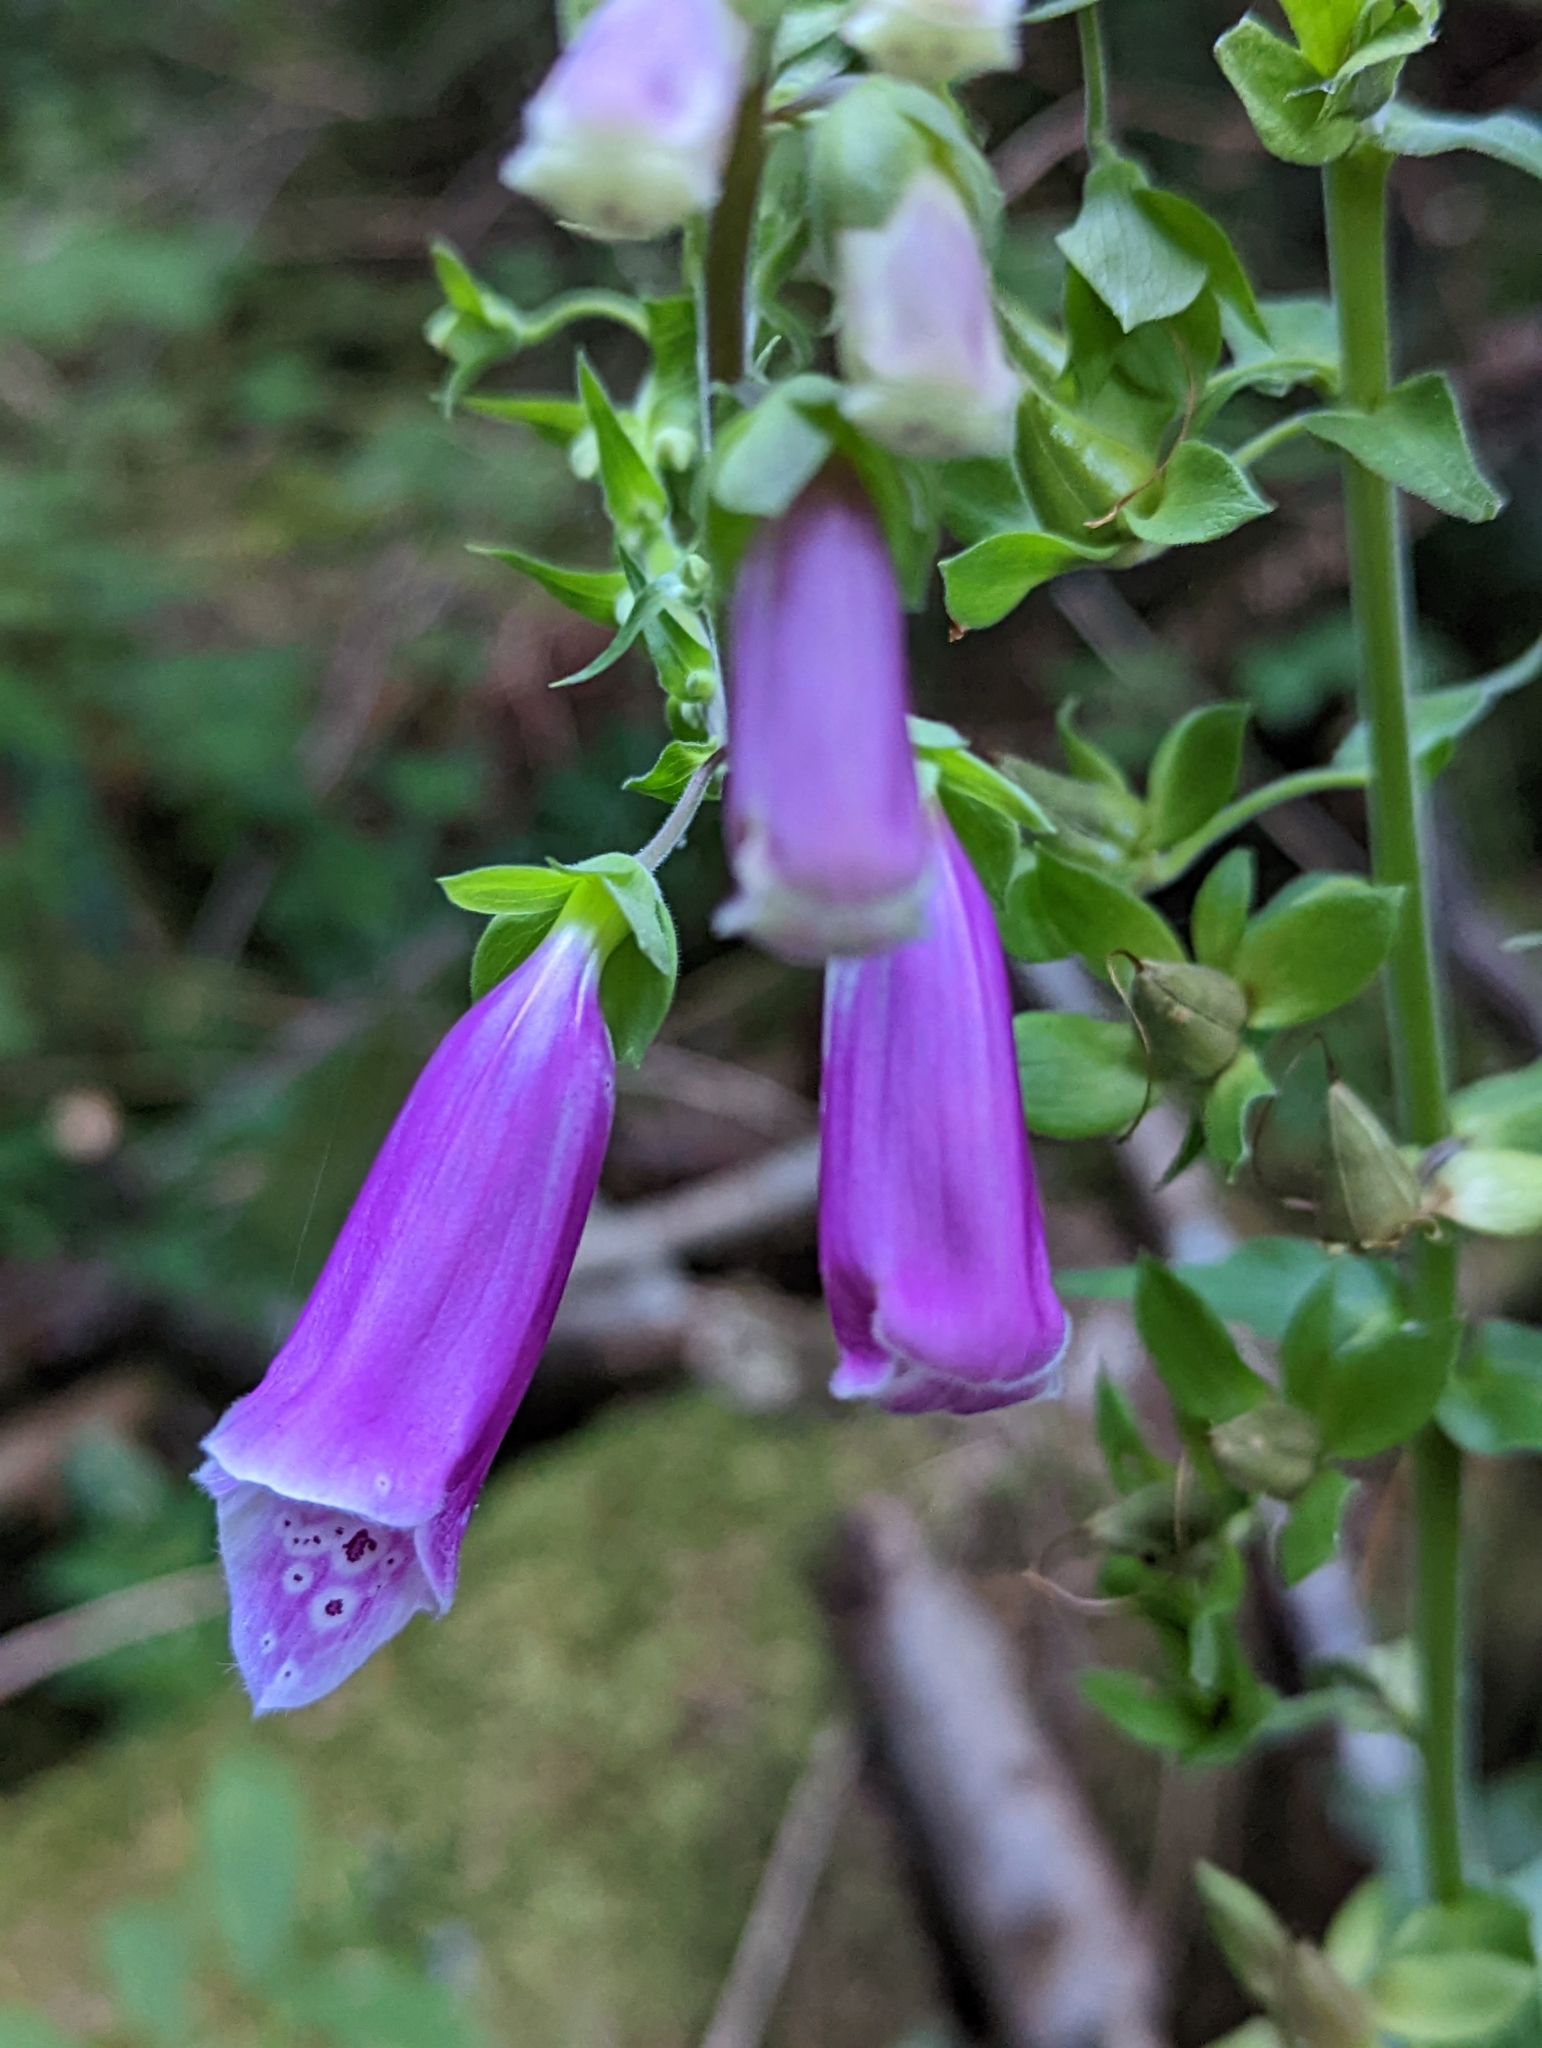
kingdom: Plantae
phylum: Tracheophyta
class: Magnoliopsida
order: Lamiales
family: Plantaginaceae
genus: Digitalis
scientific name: Digitalis purpurea
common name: Foxglove
